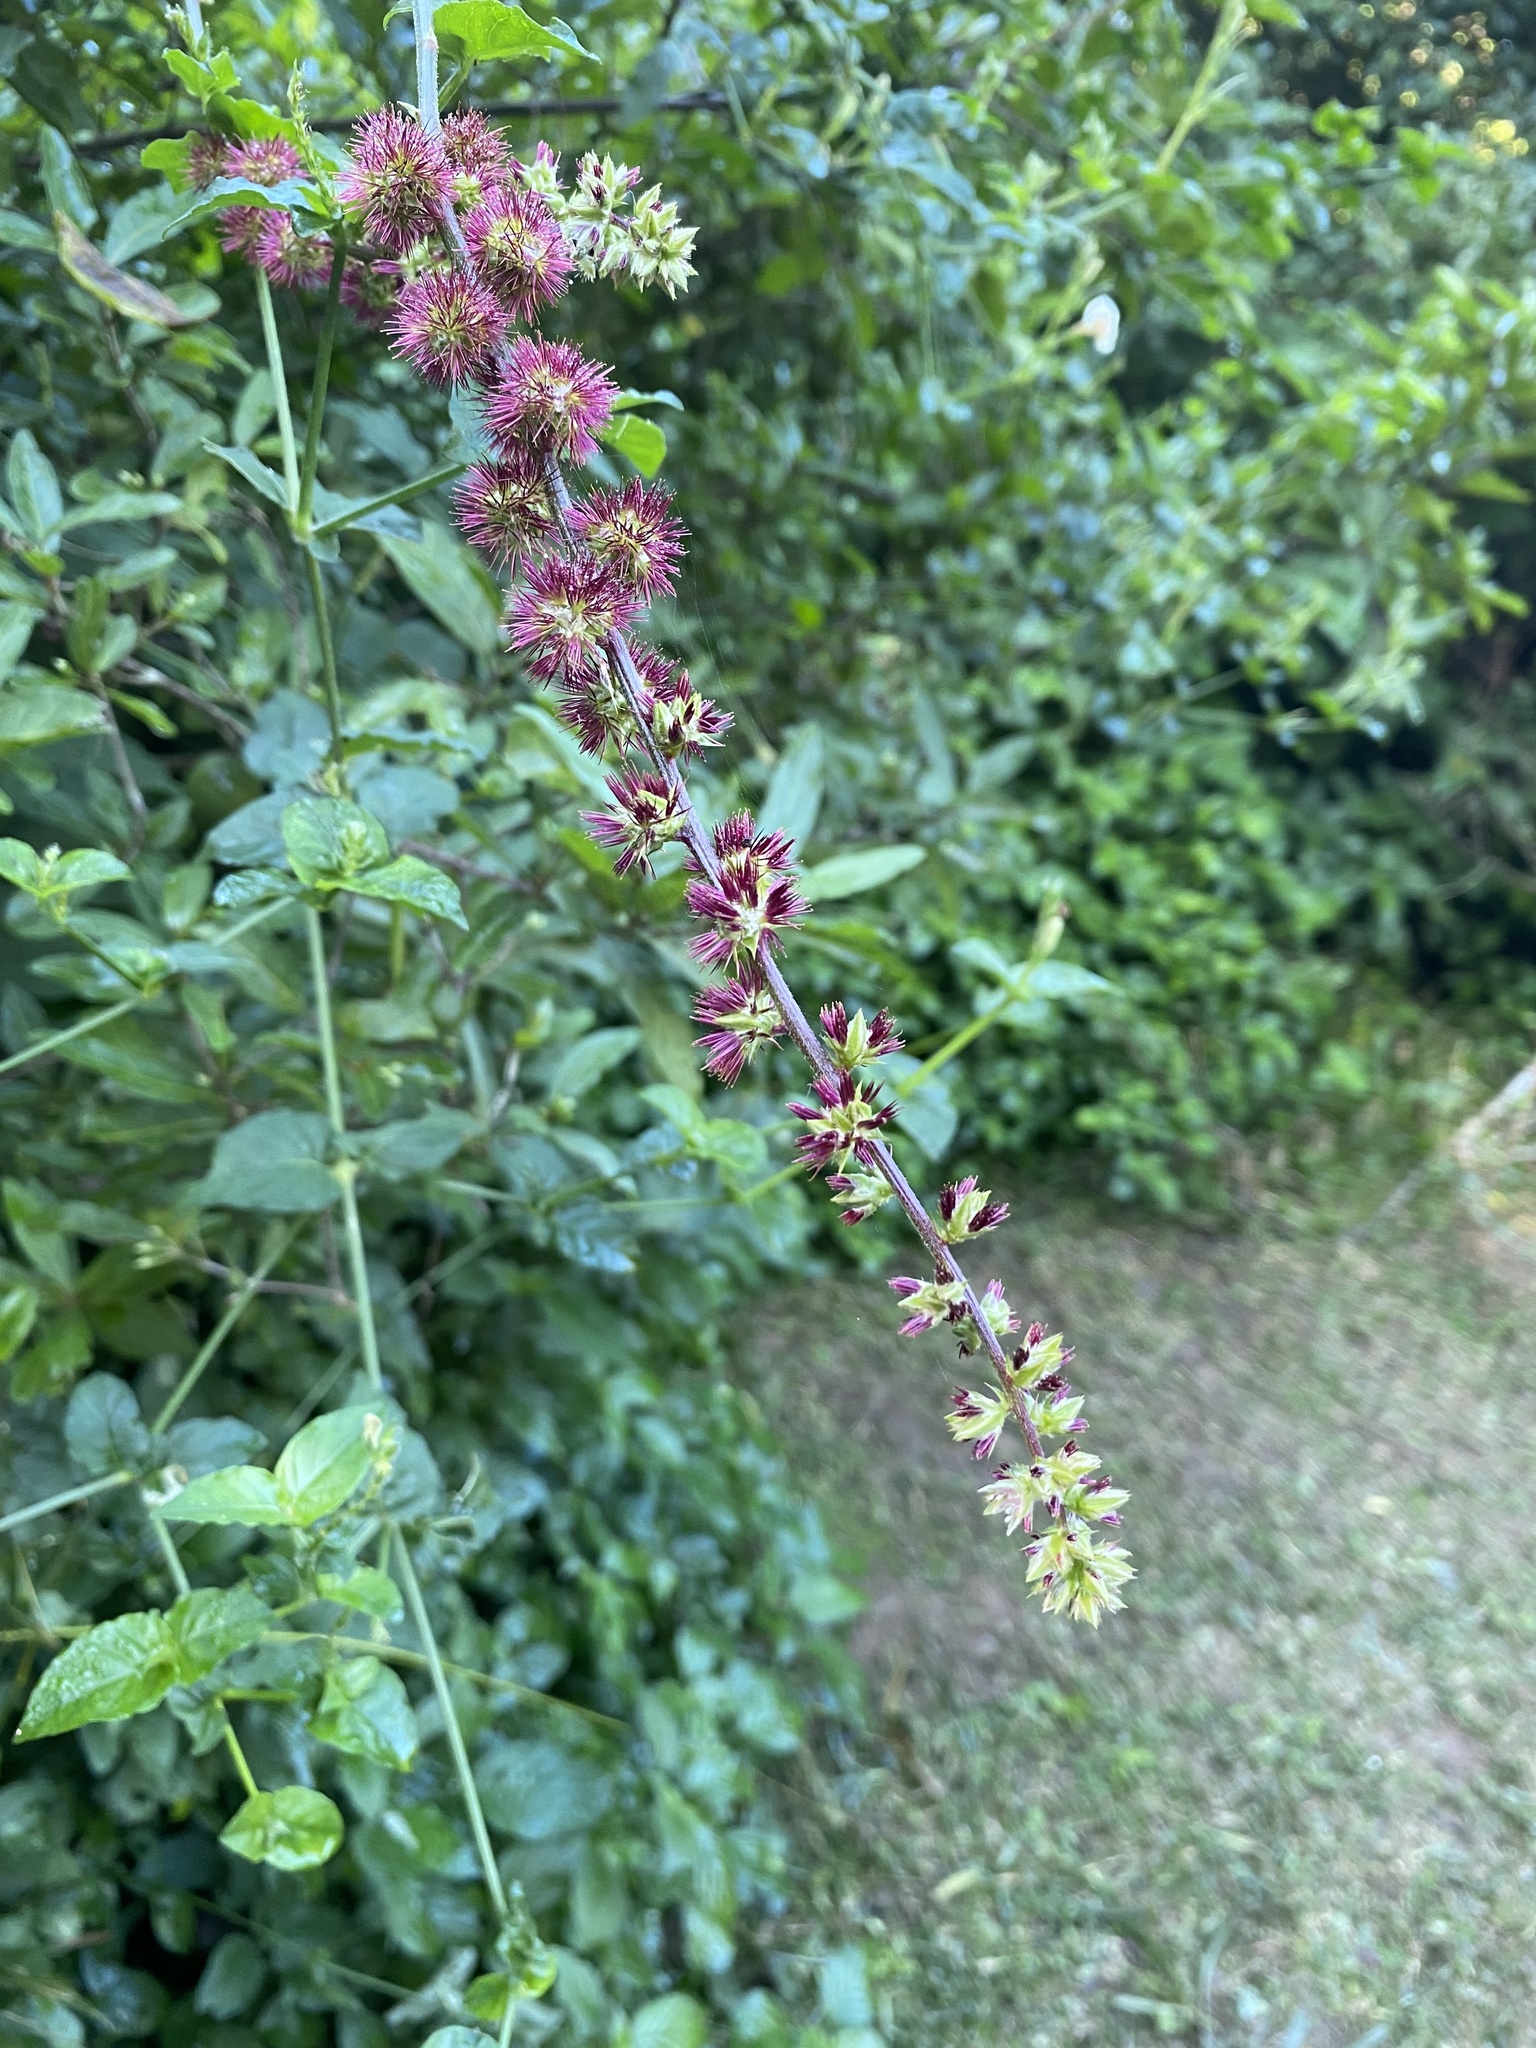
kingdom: Plantae
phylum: Tracheophyta
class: Magnoliopsida
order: Caryophyllales
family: Amaranthaceae
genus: Pupalia
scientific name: Pupalia lappacea
